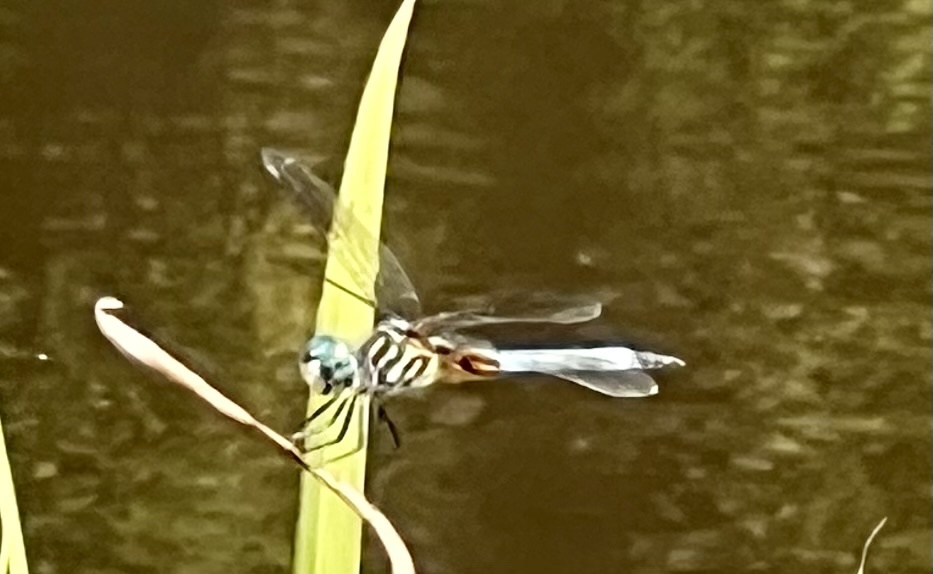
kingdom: Animalia
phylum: Arthropoda
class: Insecta
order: Odonata
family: Libellulidae
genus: Pachydiplax
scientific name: Pachydiplax longipennis
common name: Blue dasher
